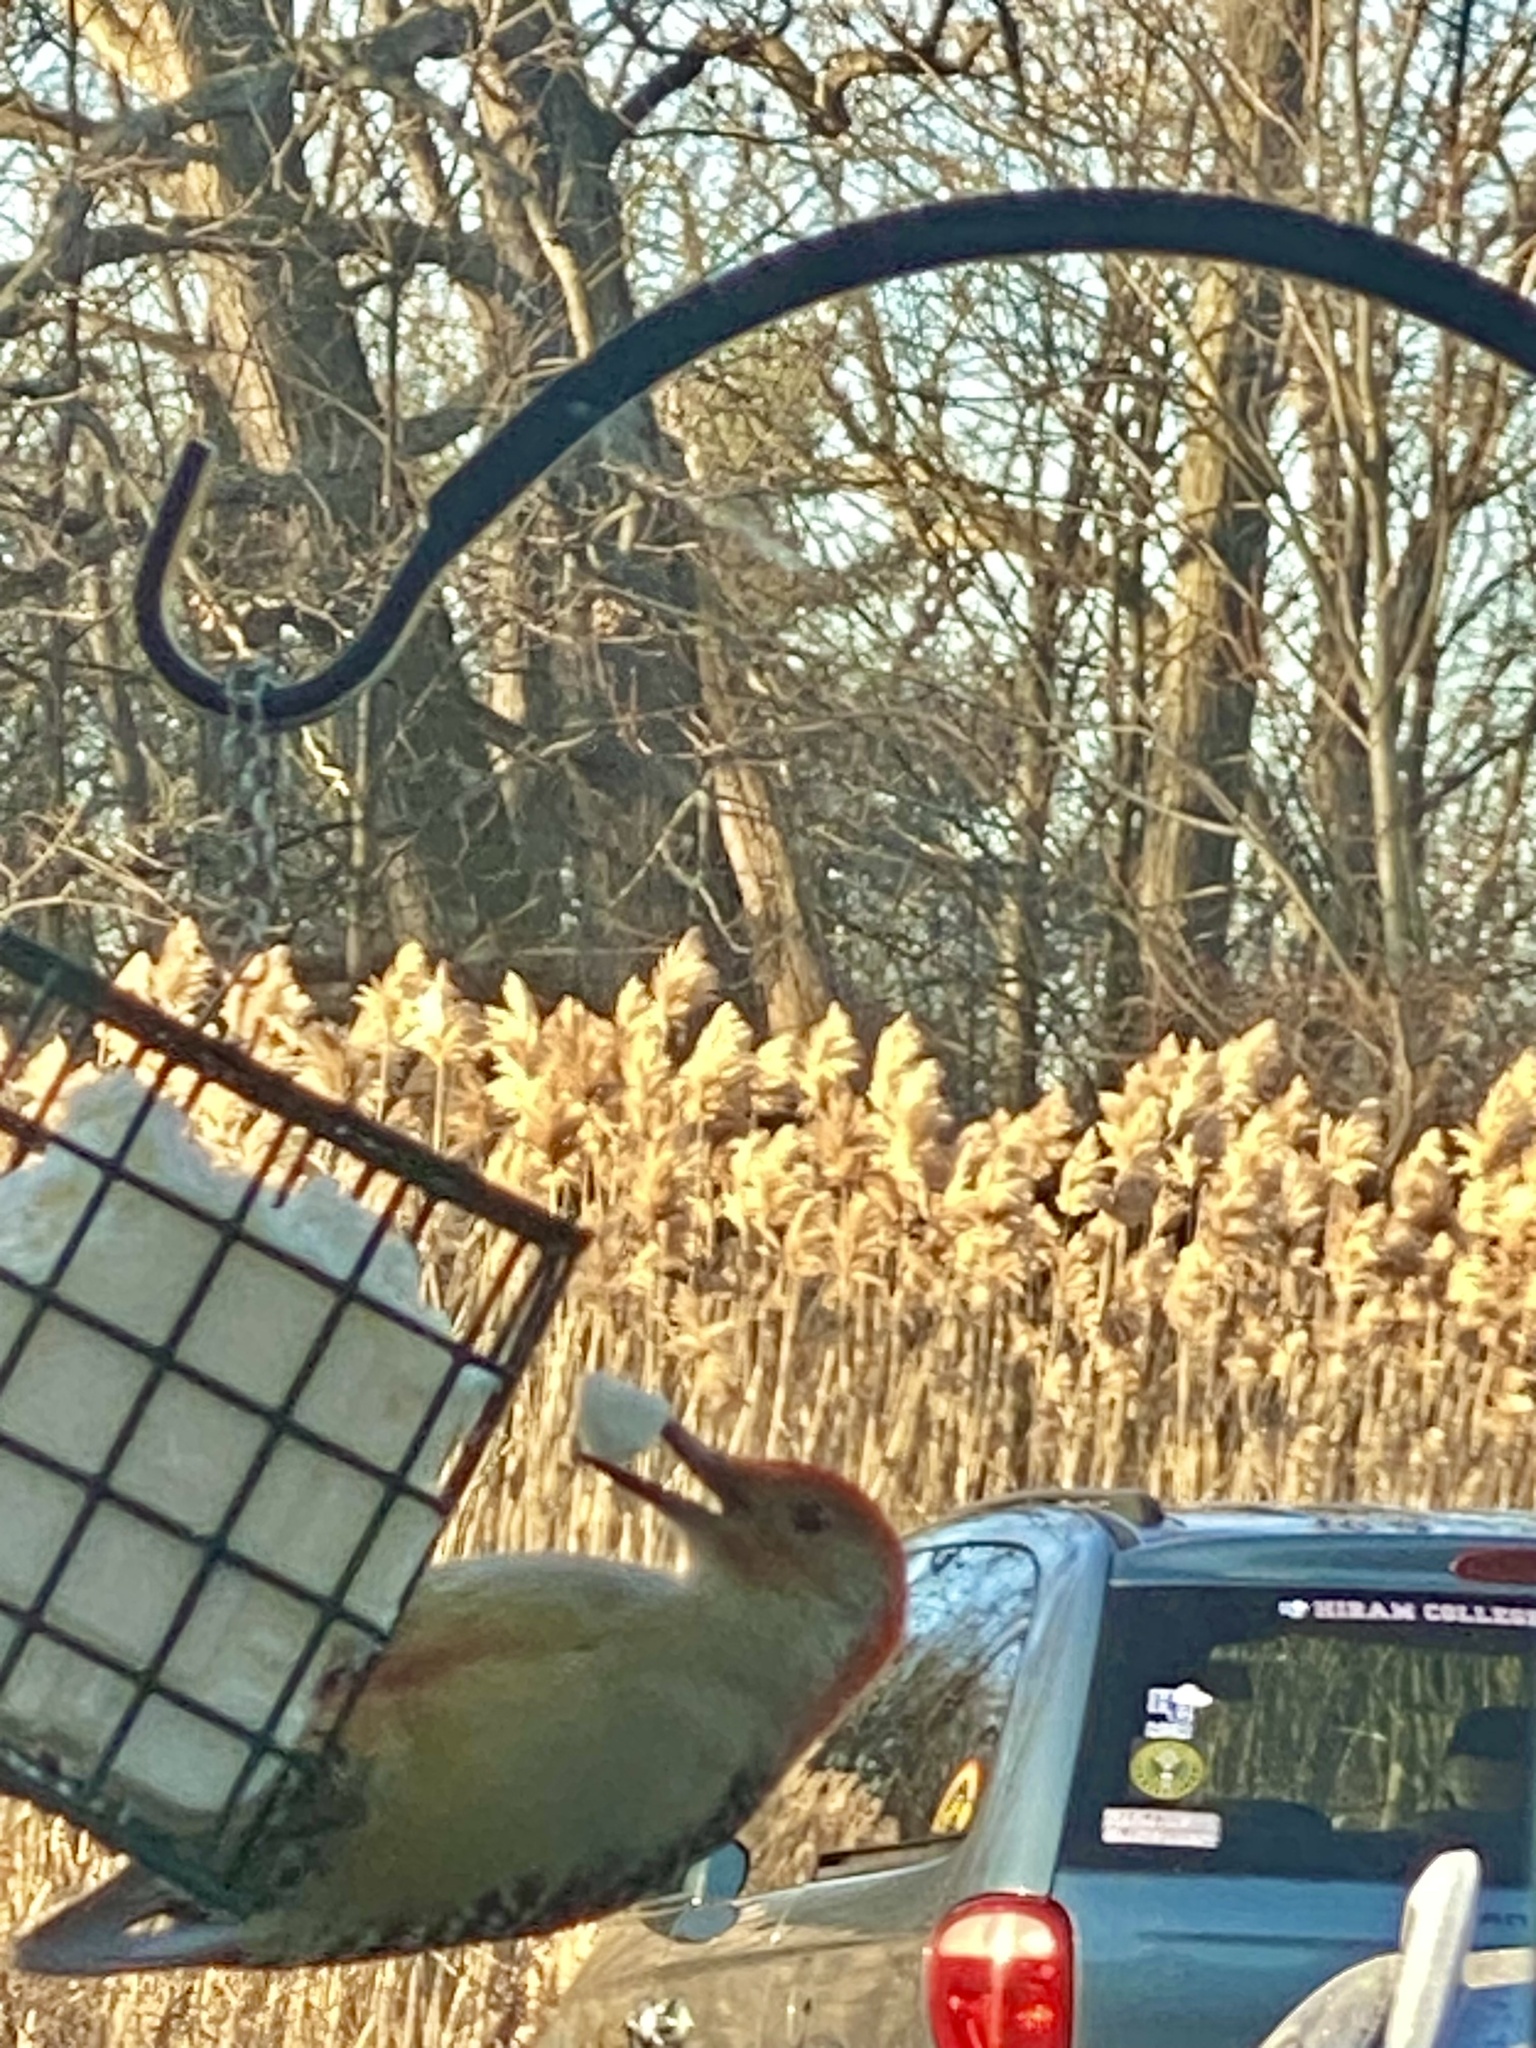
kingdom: Animalia
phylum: Chordata
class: Aves
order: Piciformes
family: Picidae
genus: Melanerpes
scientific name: Melanerpes carolinus
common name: Red-bellied woodpecker
